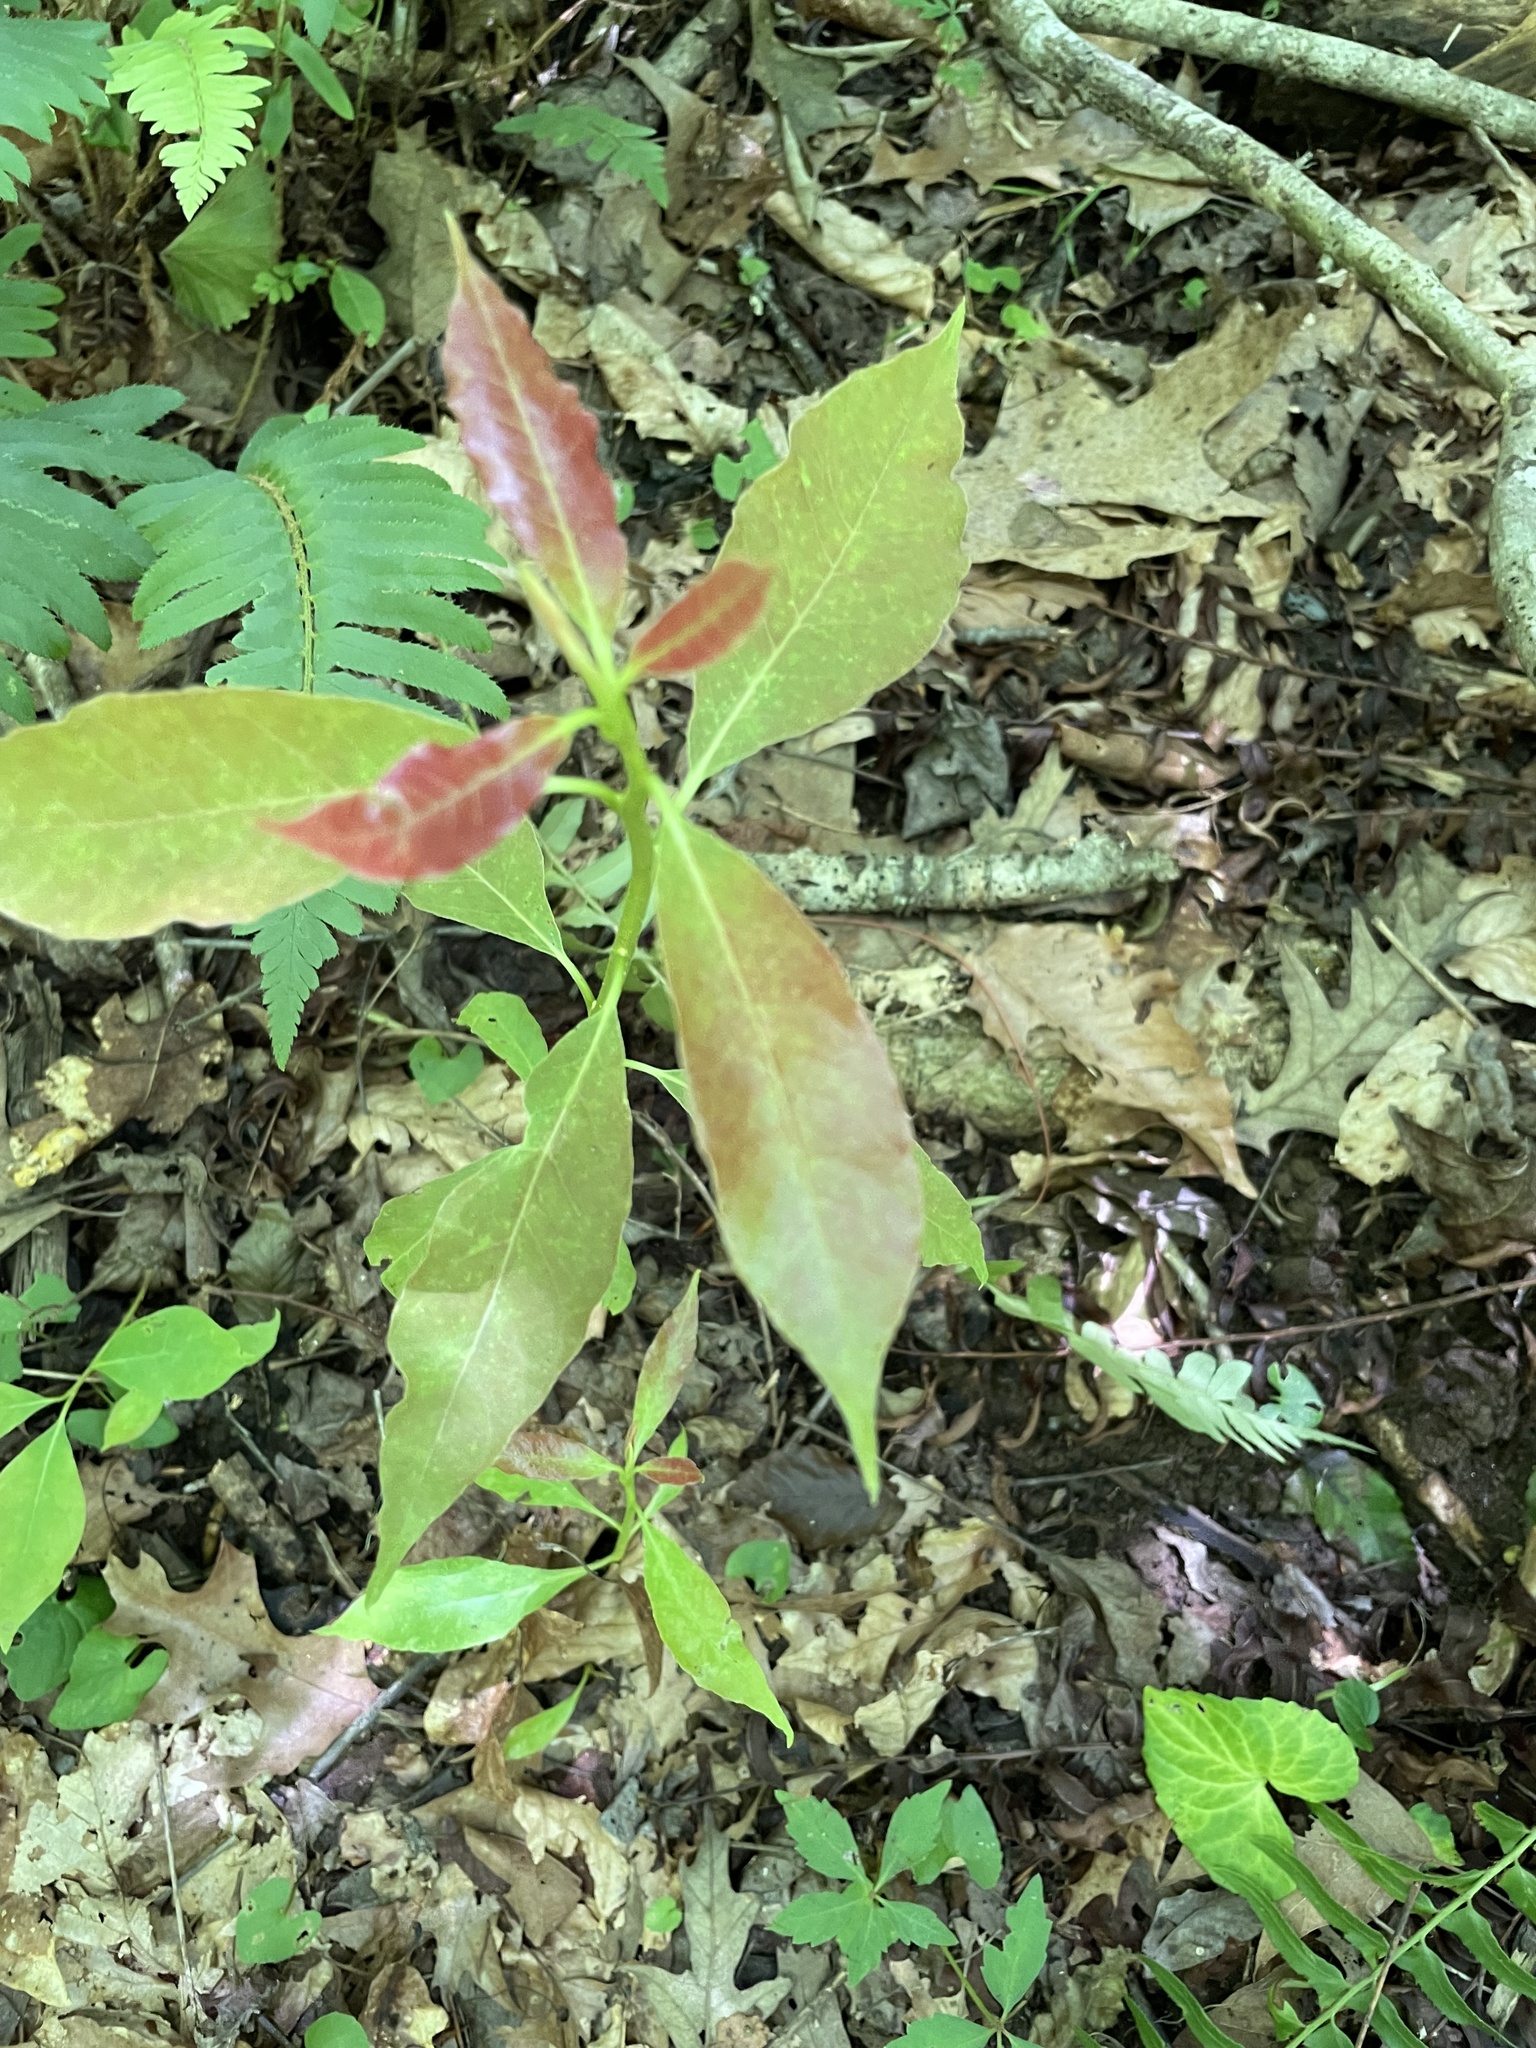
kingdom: Plantae
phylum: Tracheophyta
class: Magnoliopsida
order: Cornales
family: Nyssaceae
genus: Nyssa
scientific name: Nyssa sylvatica
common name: Black tupelo
